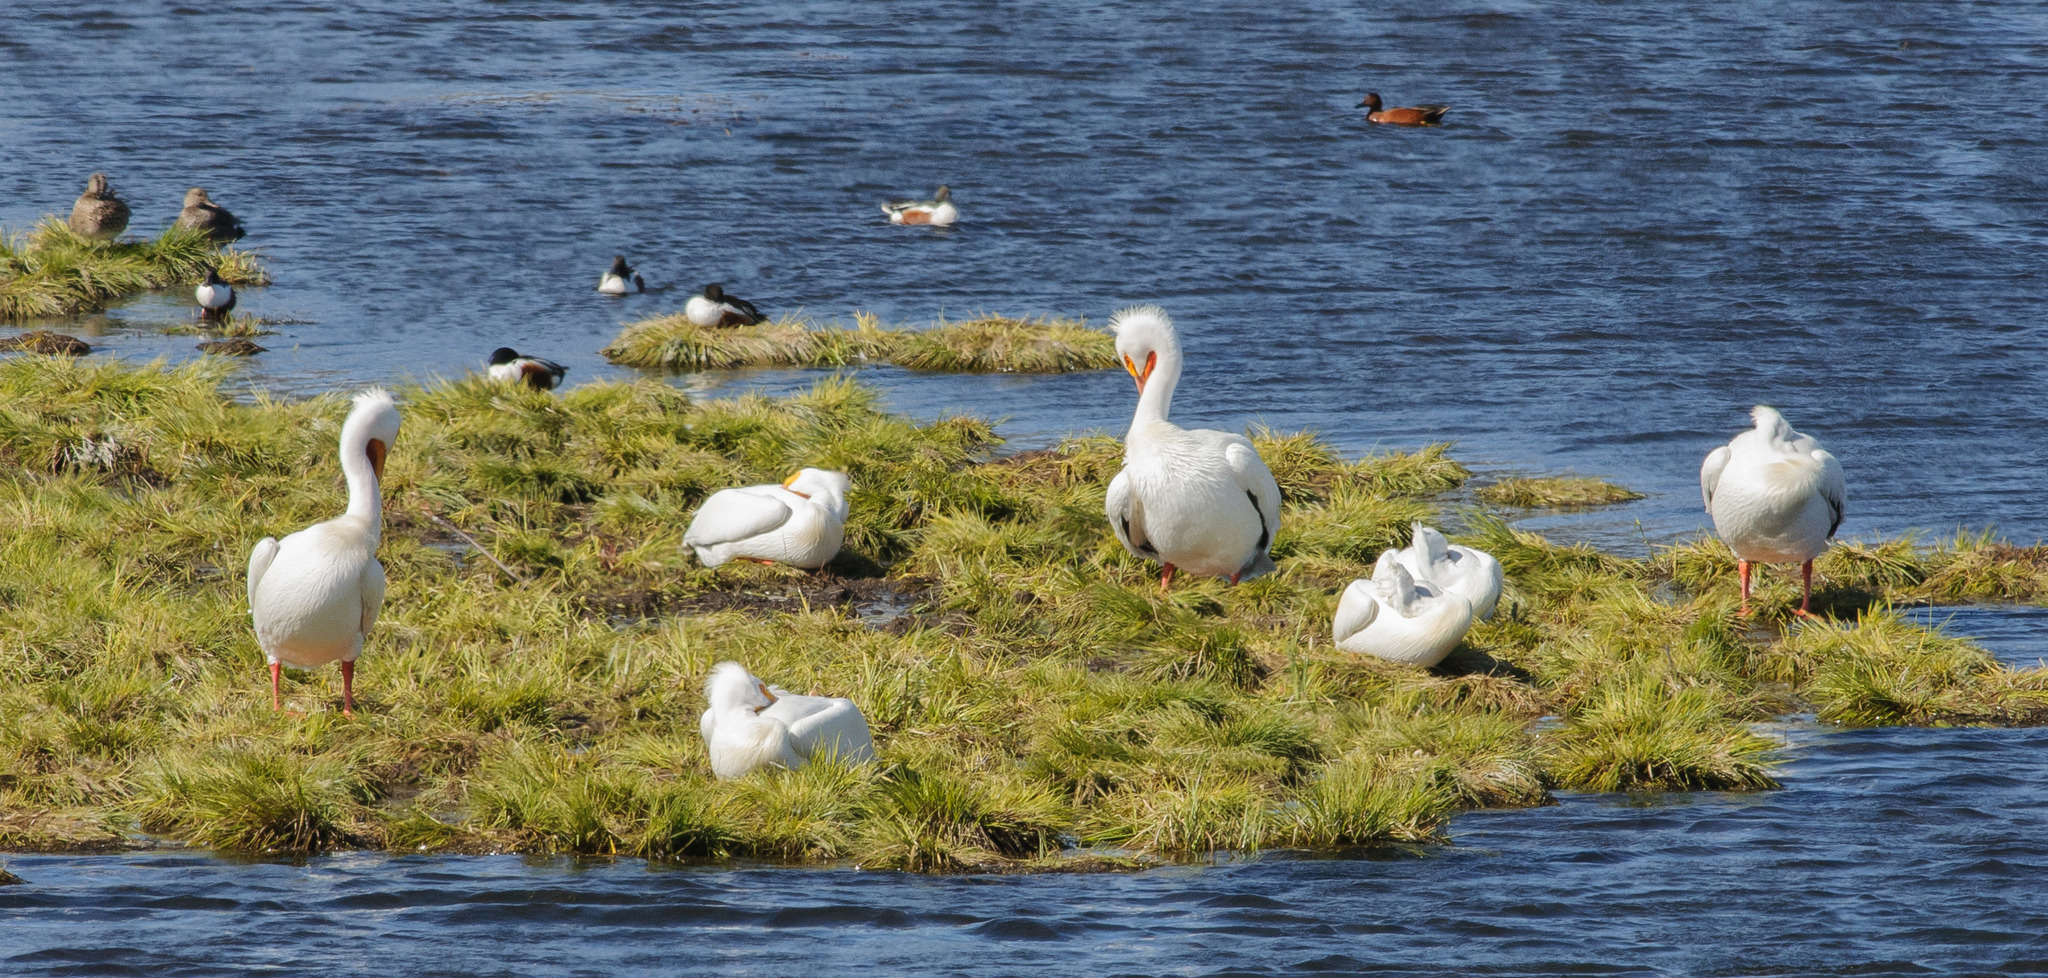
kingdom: Animalia
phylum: Chordata
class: Aves
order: Pelecaniformes
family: Pelecanidae
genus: Pelecanus
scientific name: Pelecanus erythrorhynchos
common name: American white pelican
